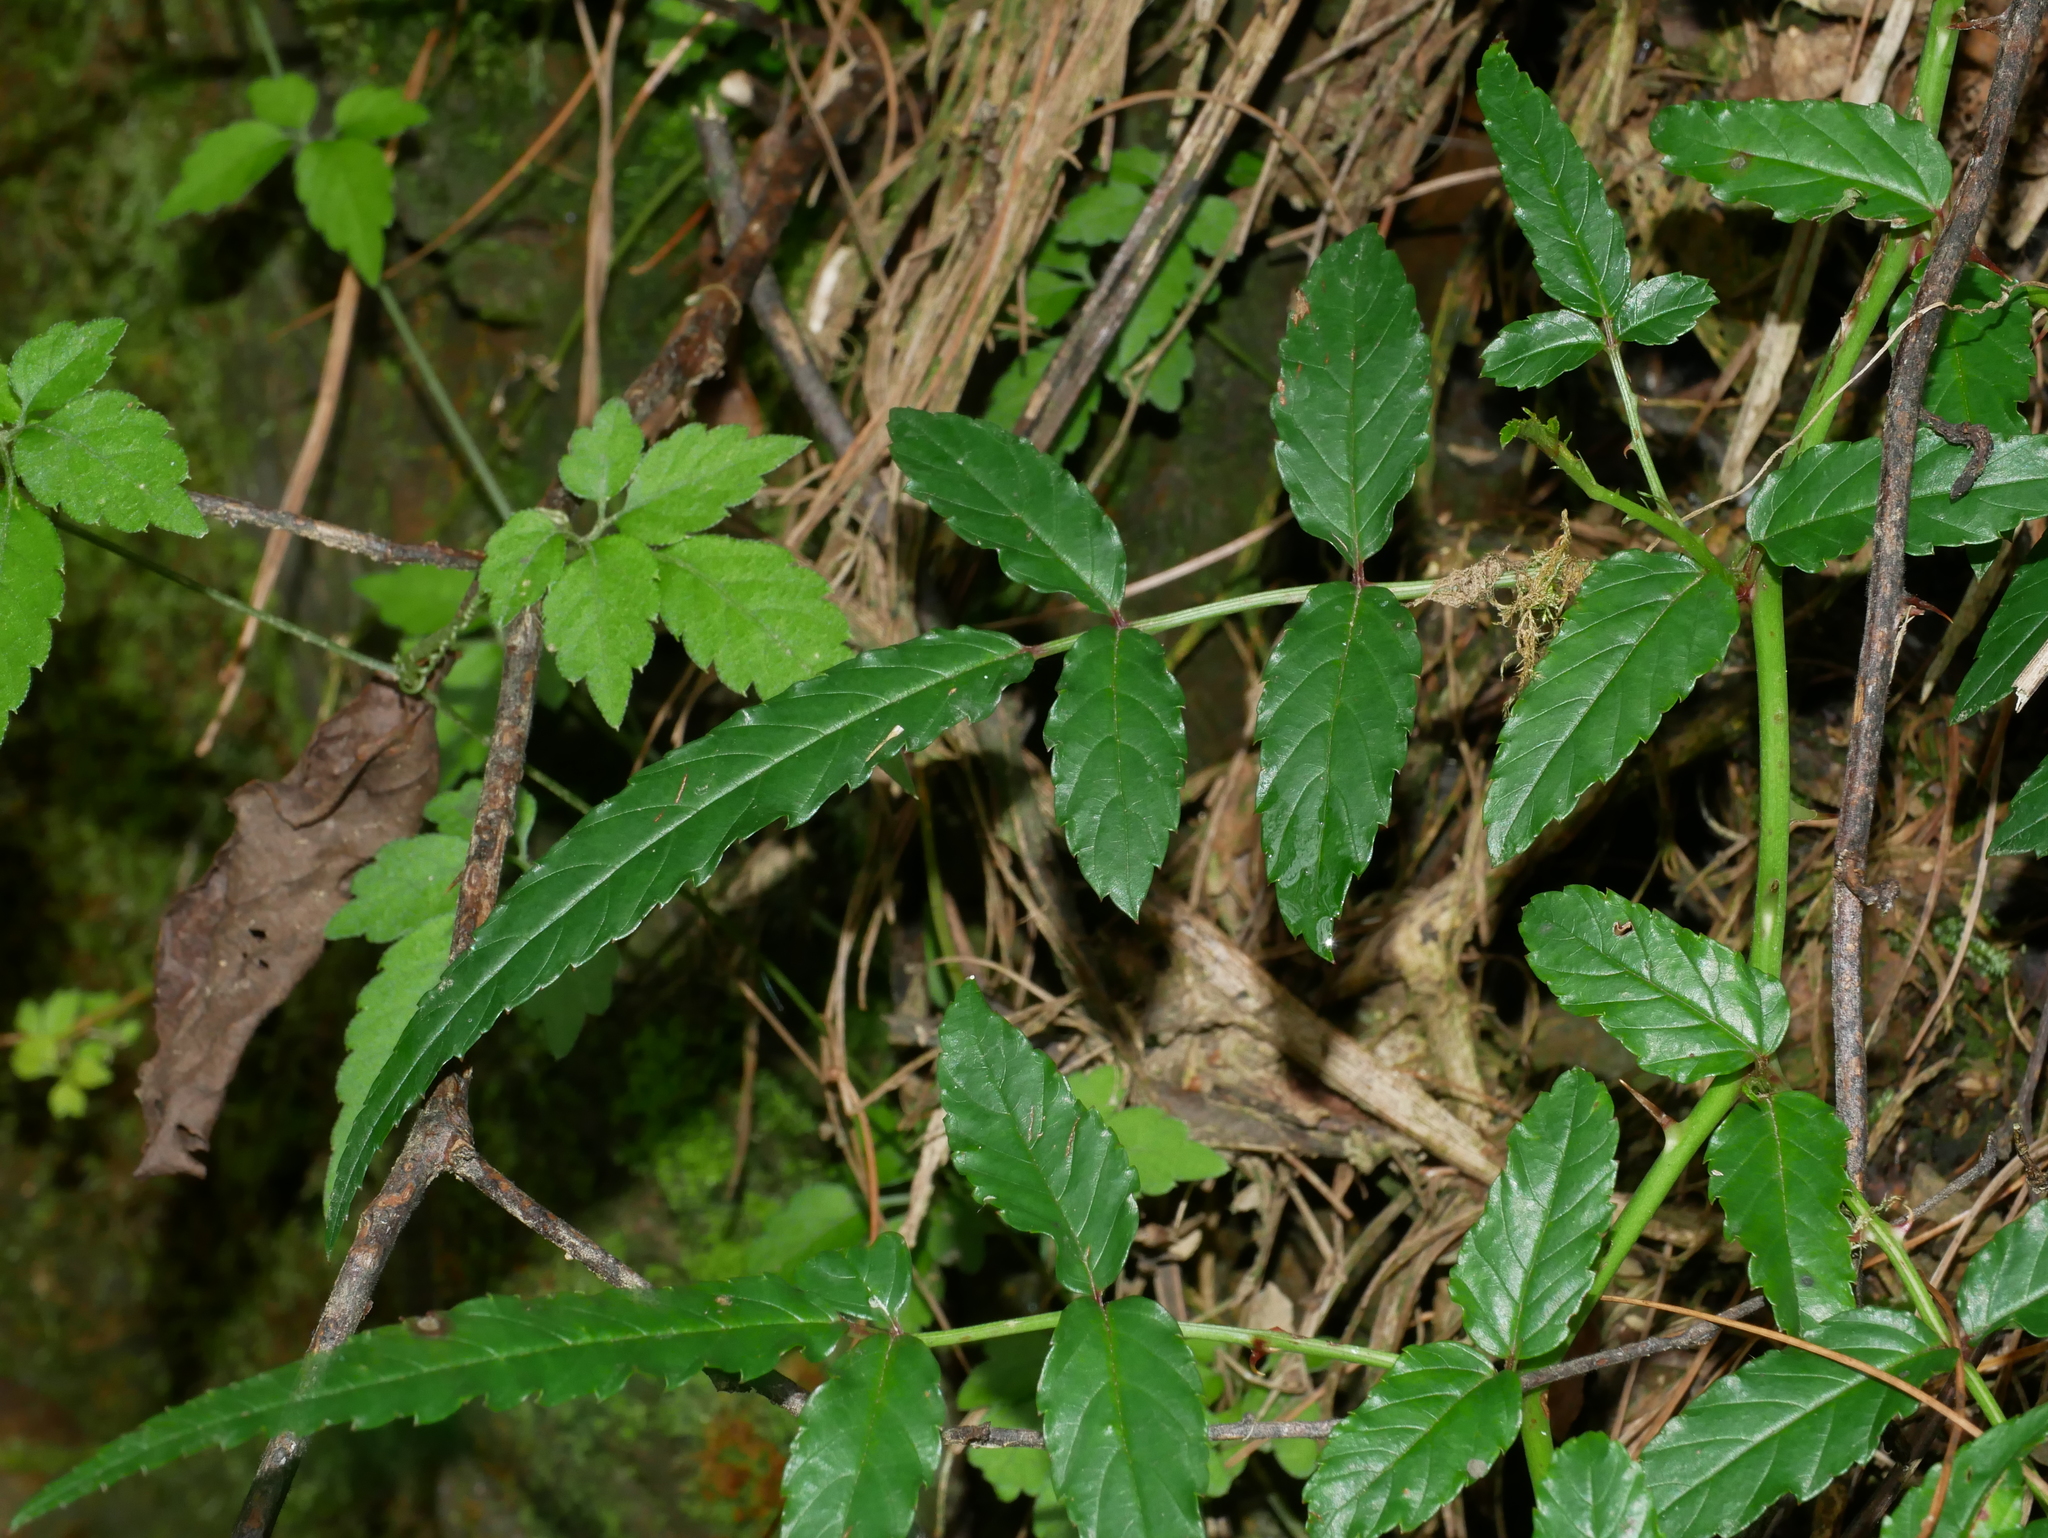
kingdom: Plantae
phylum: Tracheophyta
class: Magnoliopsida
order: Rosales
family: Rosaceae
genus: Rubus
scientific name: Rubus croceacanthus
